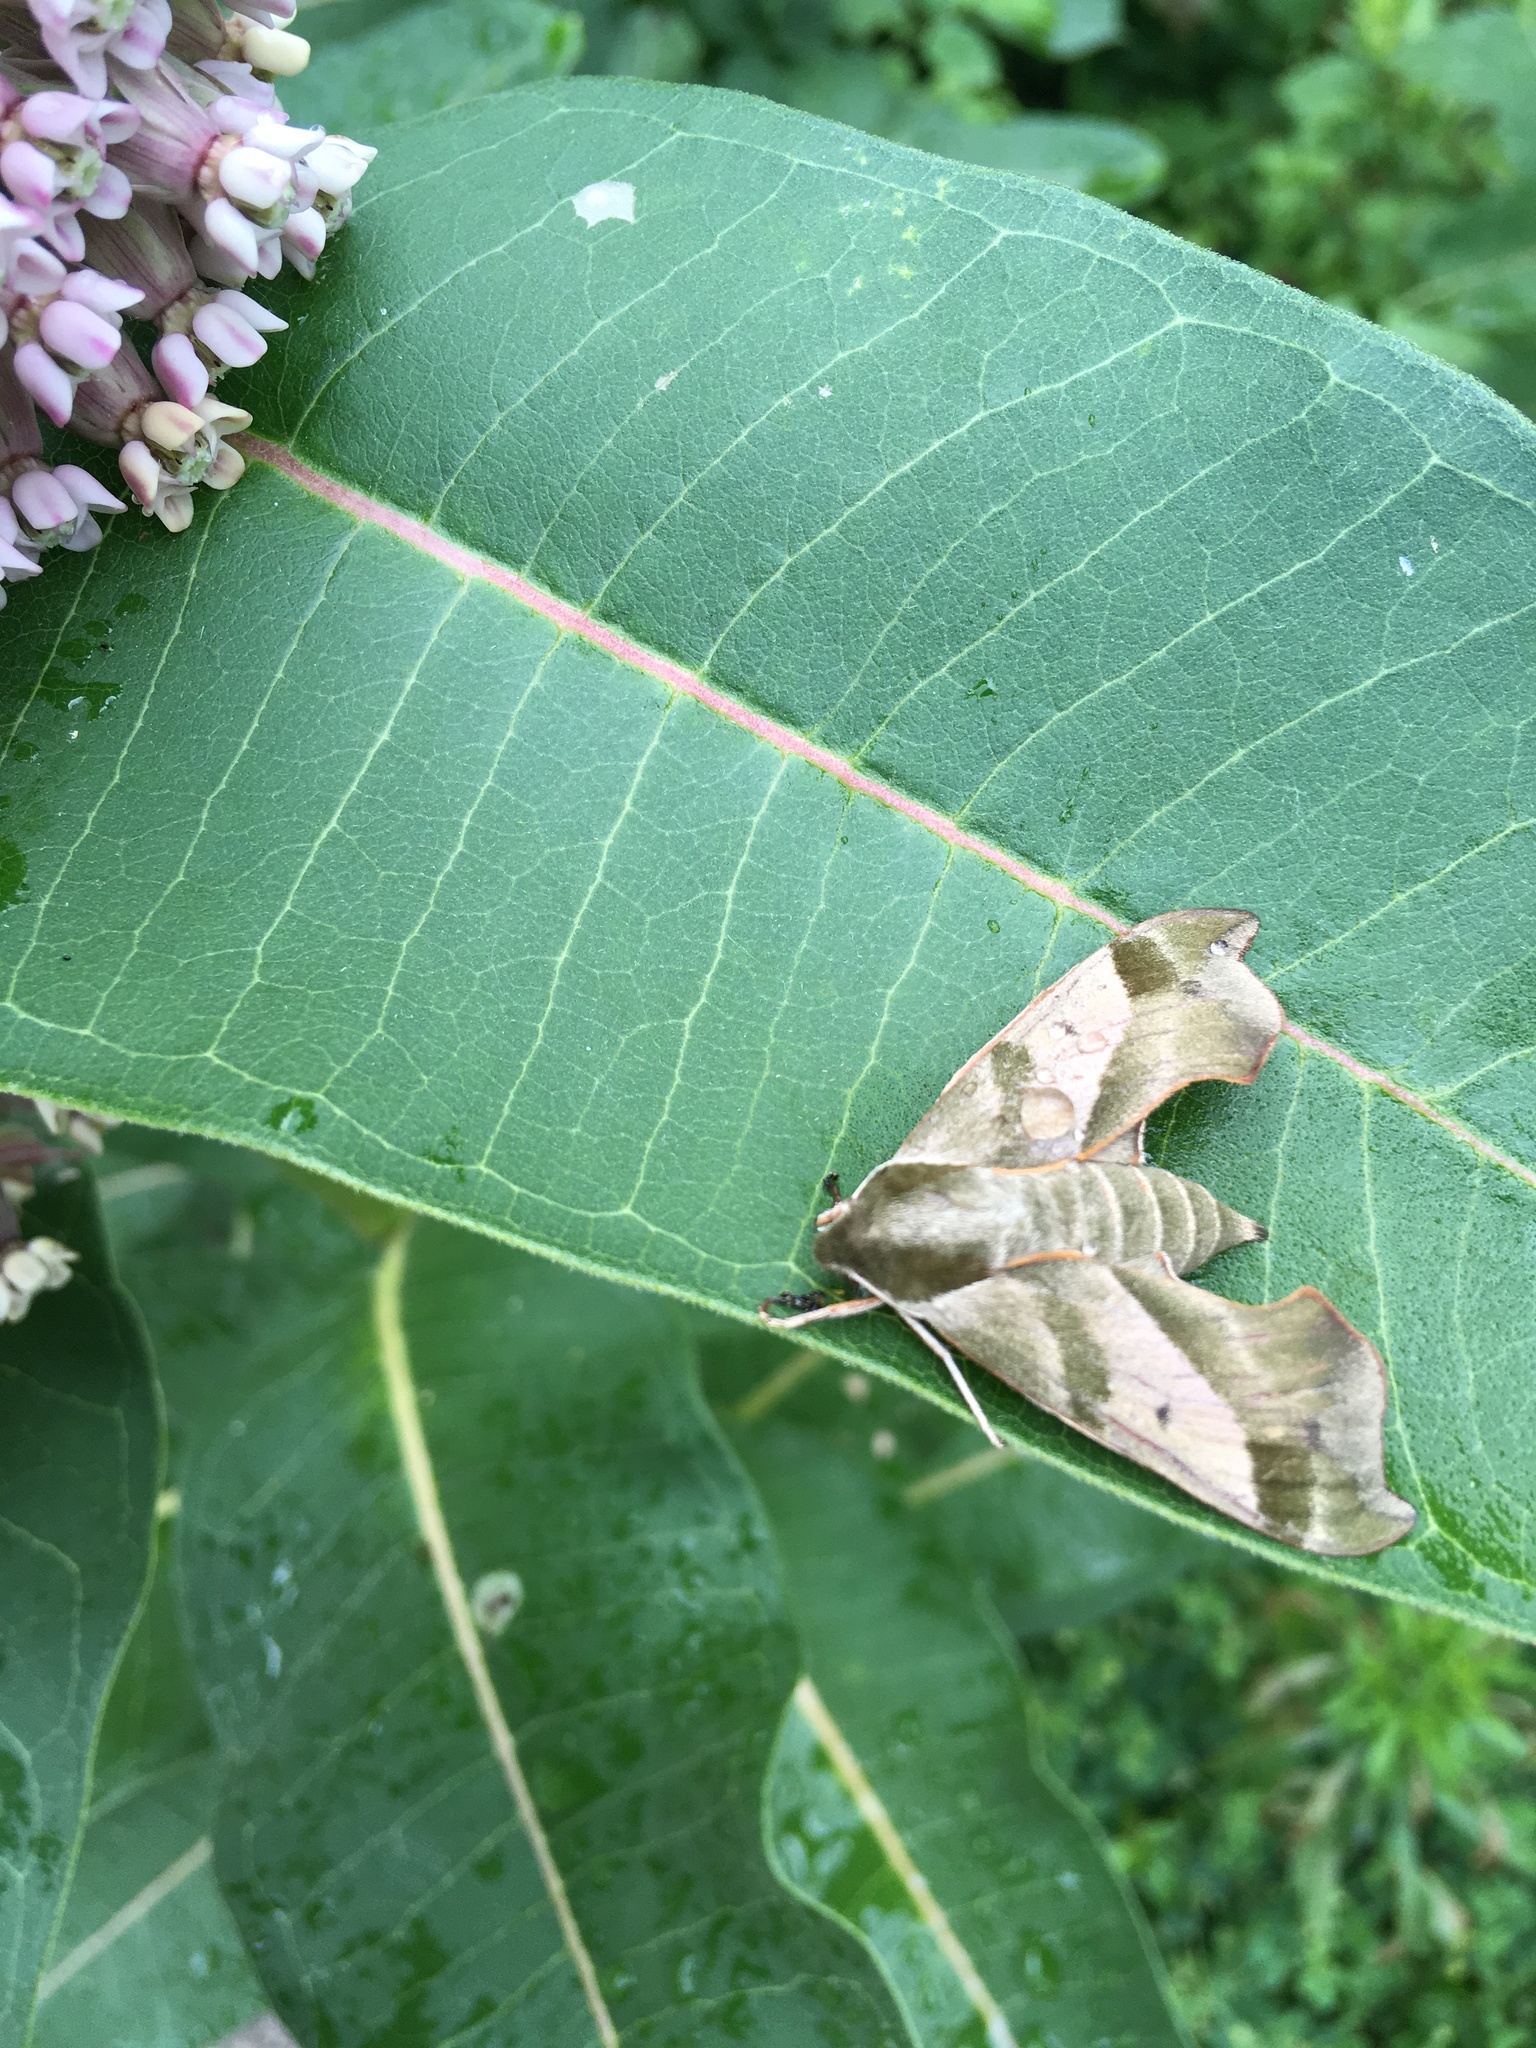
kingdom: Animalia
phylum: Arthropoda
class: Insecta
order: Lepidoptera
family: Sphingidae
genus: Darapsa
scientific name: Darapsa myron
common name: Hog sphinx
